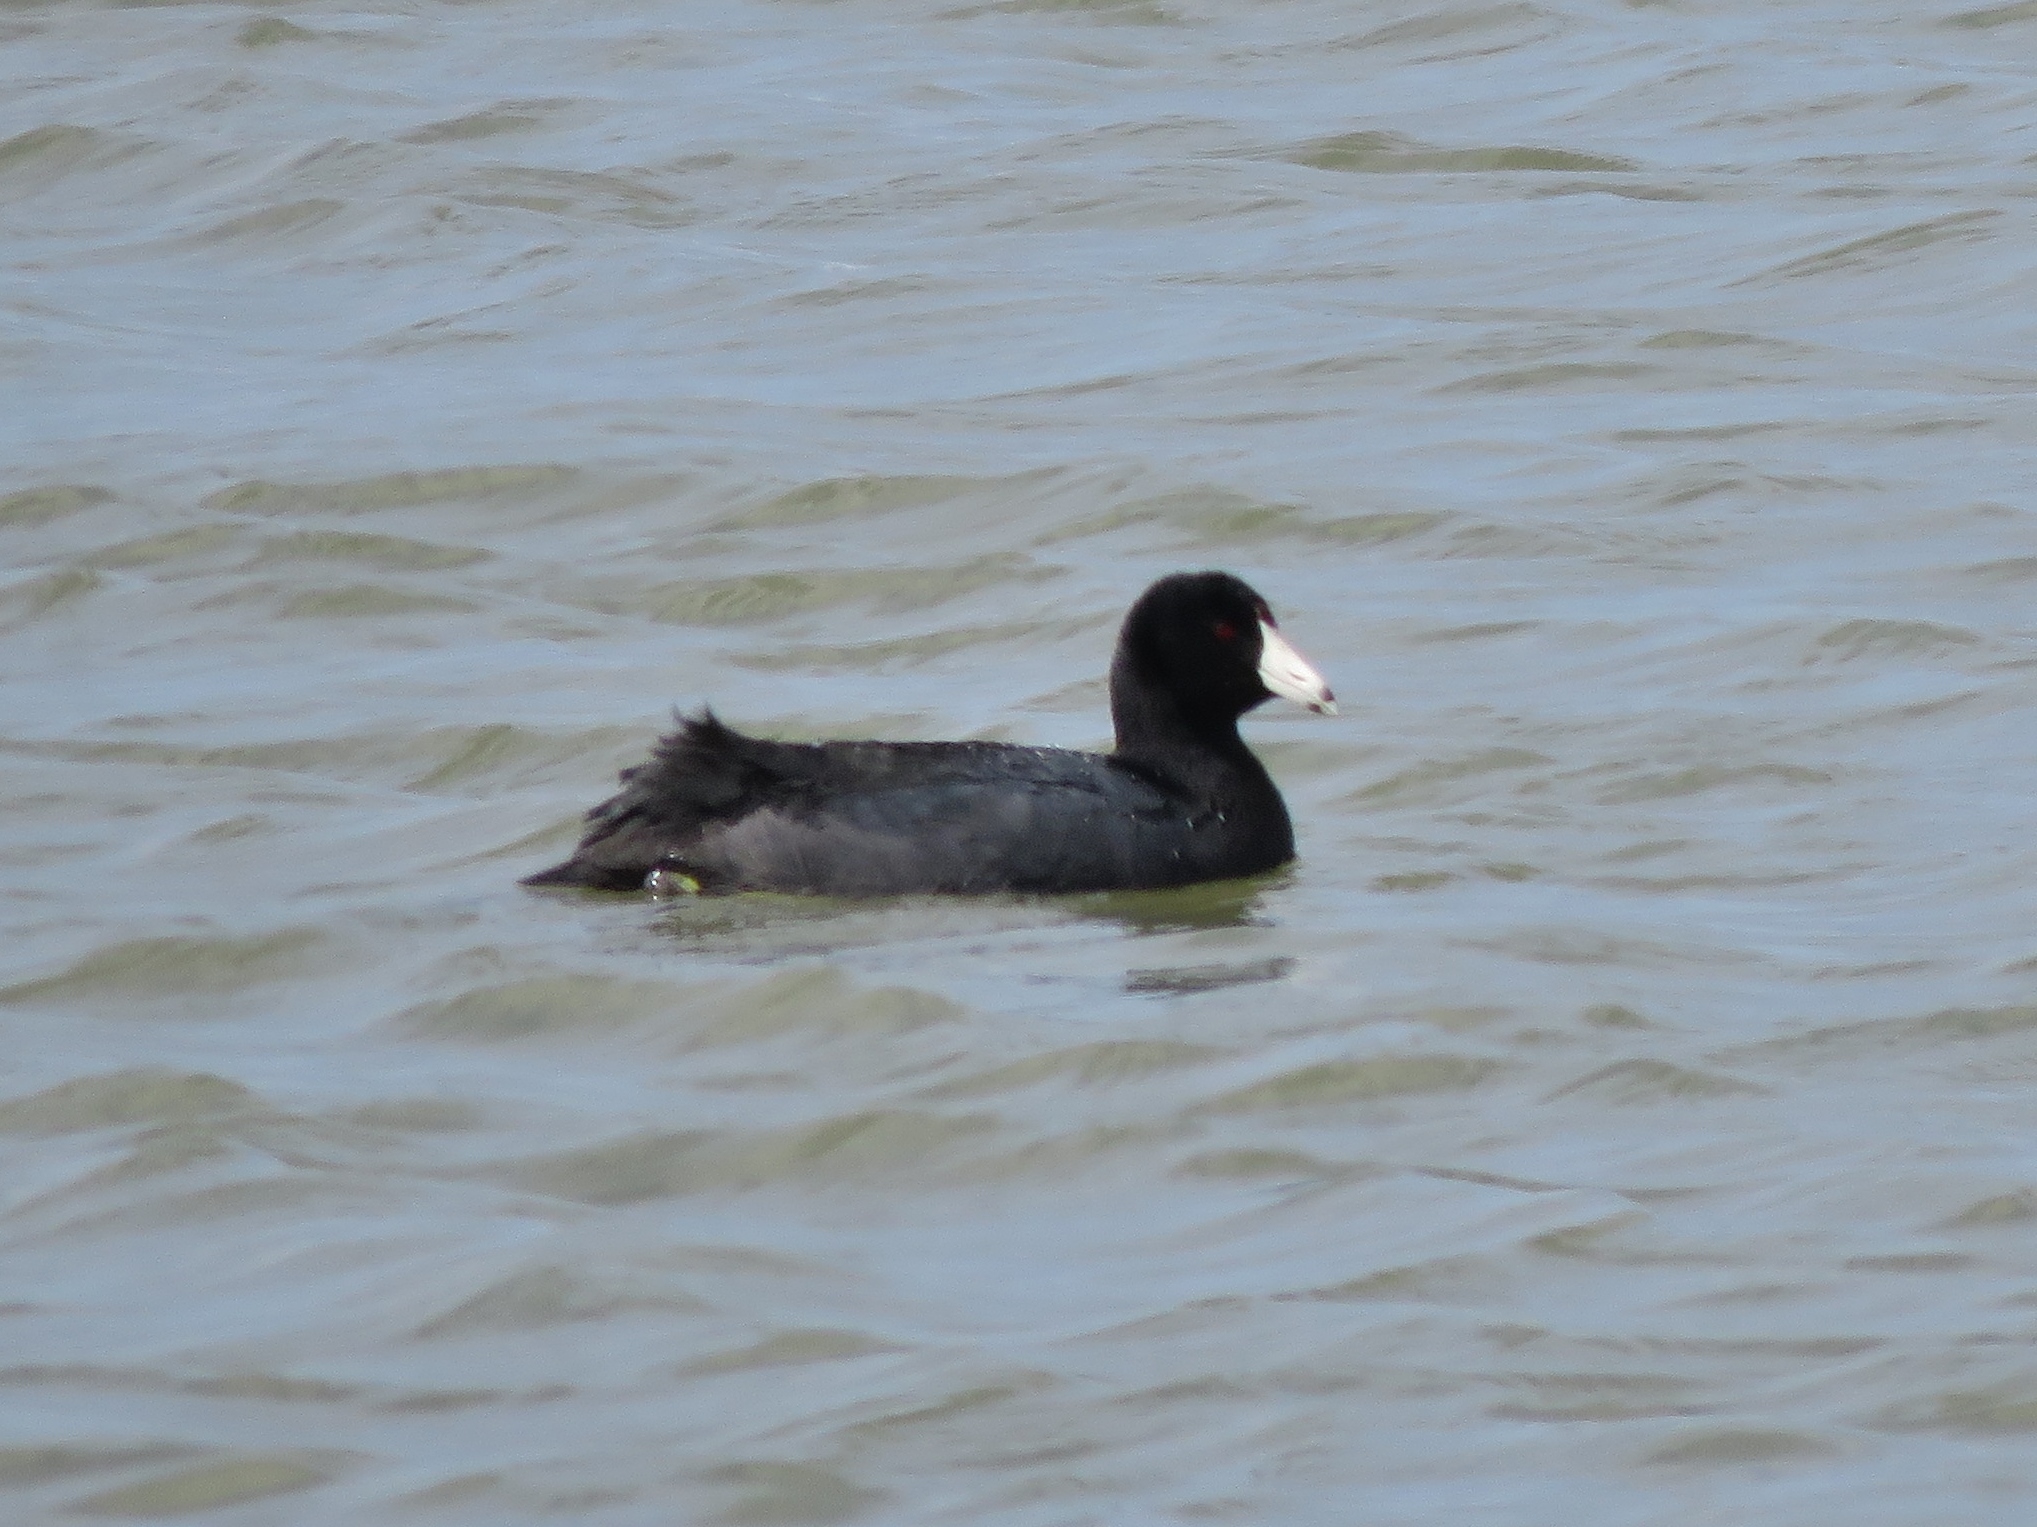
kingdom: Animalia
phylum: Chordata
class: Aves
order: Gruiformes
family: Rallidae
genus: Fulica
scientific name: Fulica americana
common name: American coot
